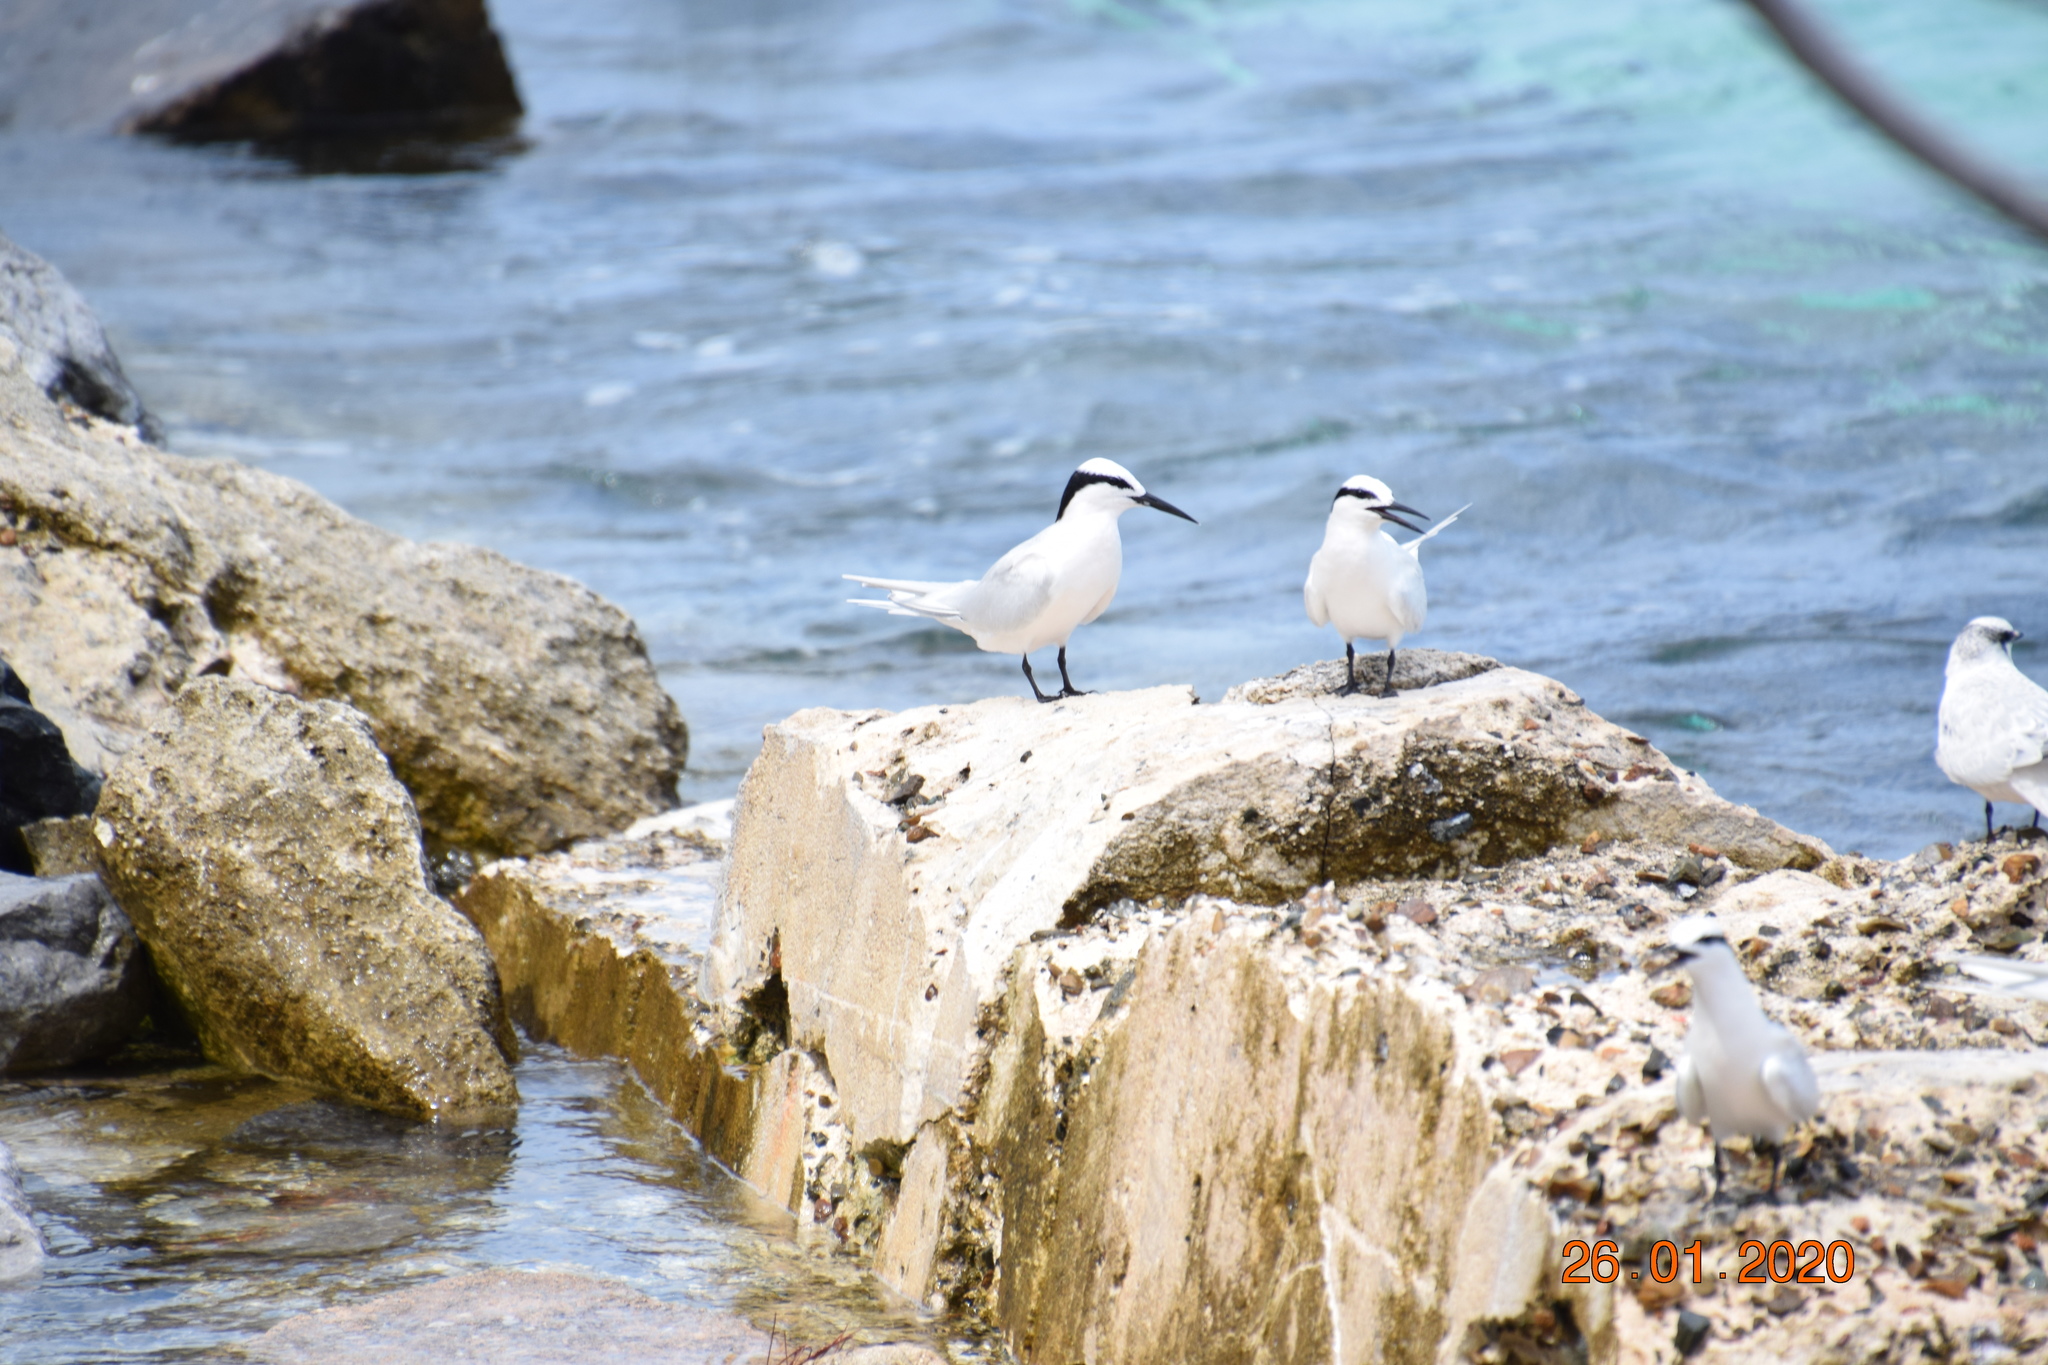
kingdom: Animalia
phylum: Chordata
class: Aves
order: Charadriiformes
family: Laridae
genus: Sterna
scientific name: Sterna sumatrana
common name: Black-naped tern
